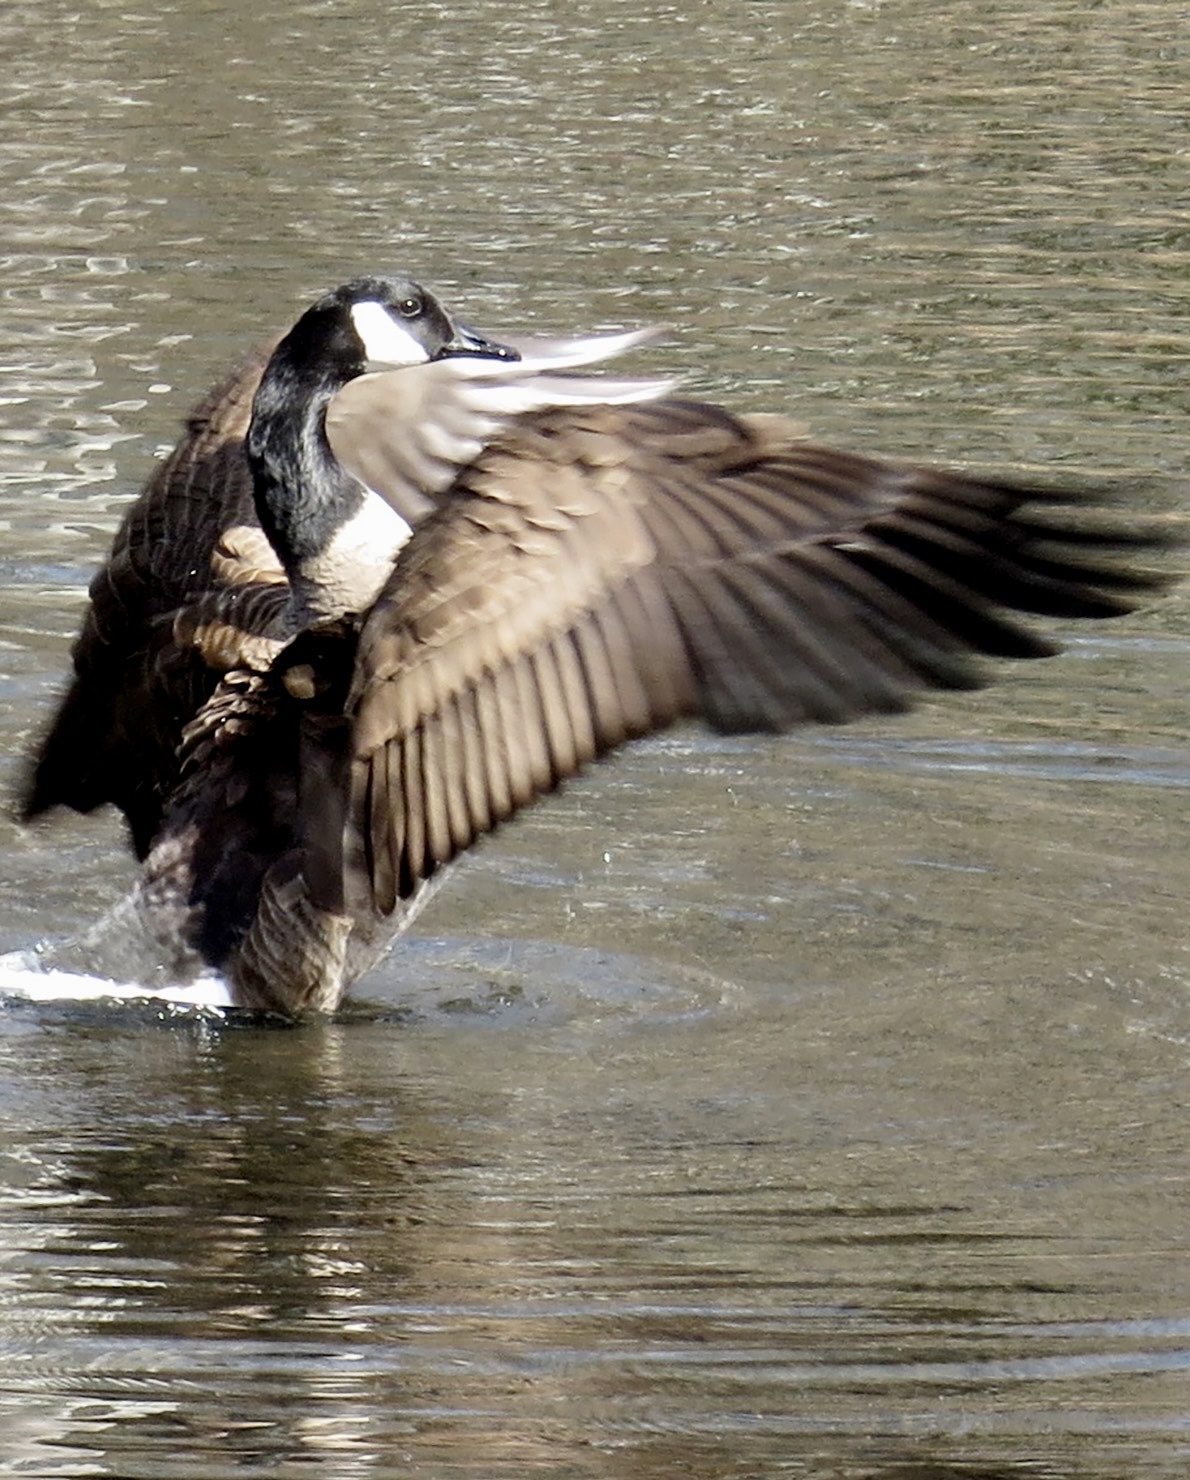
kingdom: Animalia
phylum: Chordata
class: Aves
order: Anseriformes
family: Anatidae
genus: Branta
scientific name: Branta canadensis
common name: Canada goose
